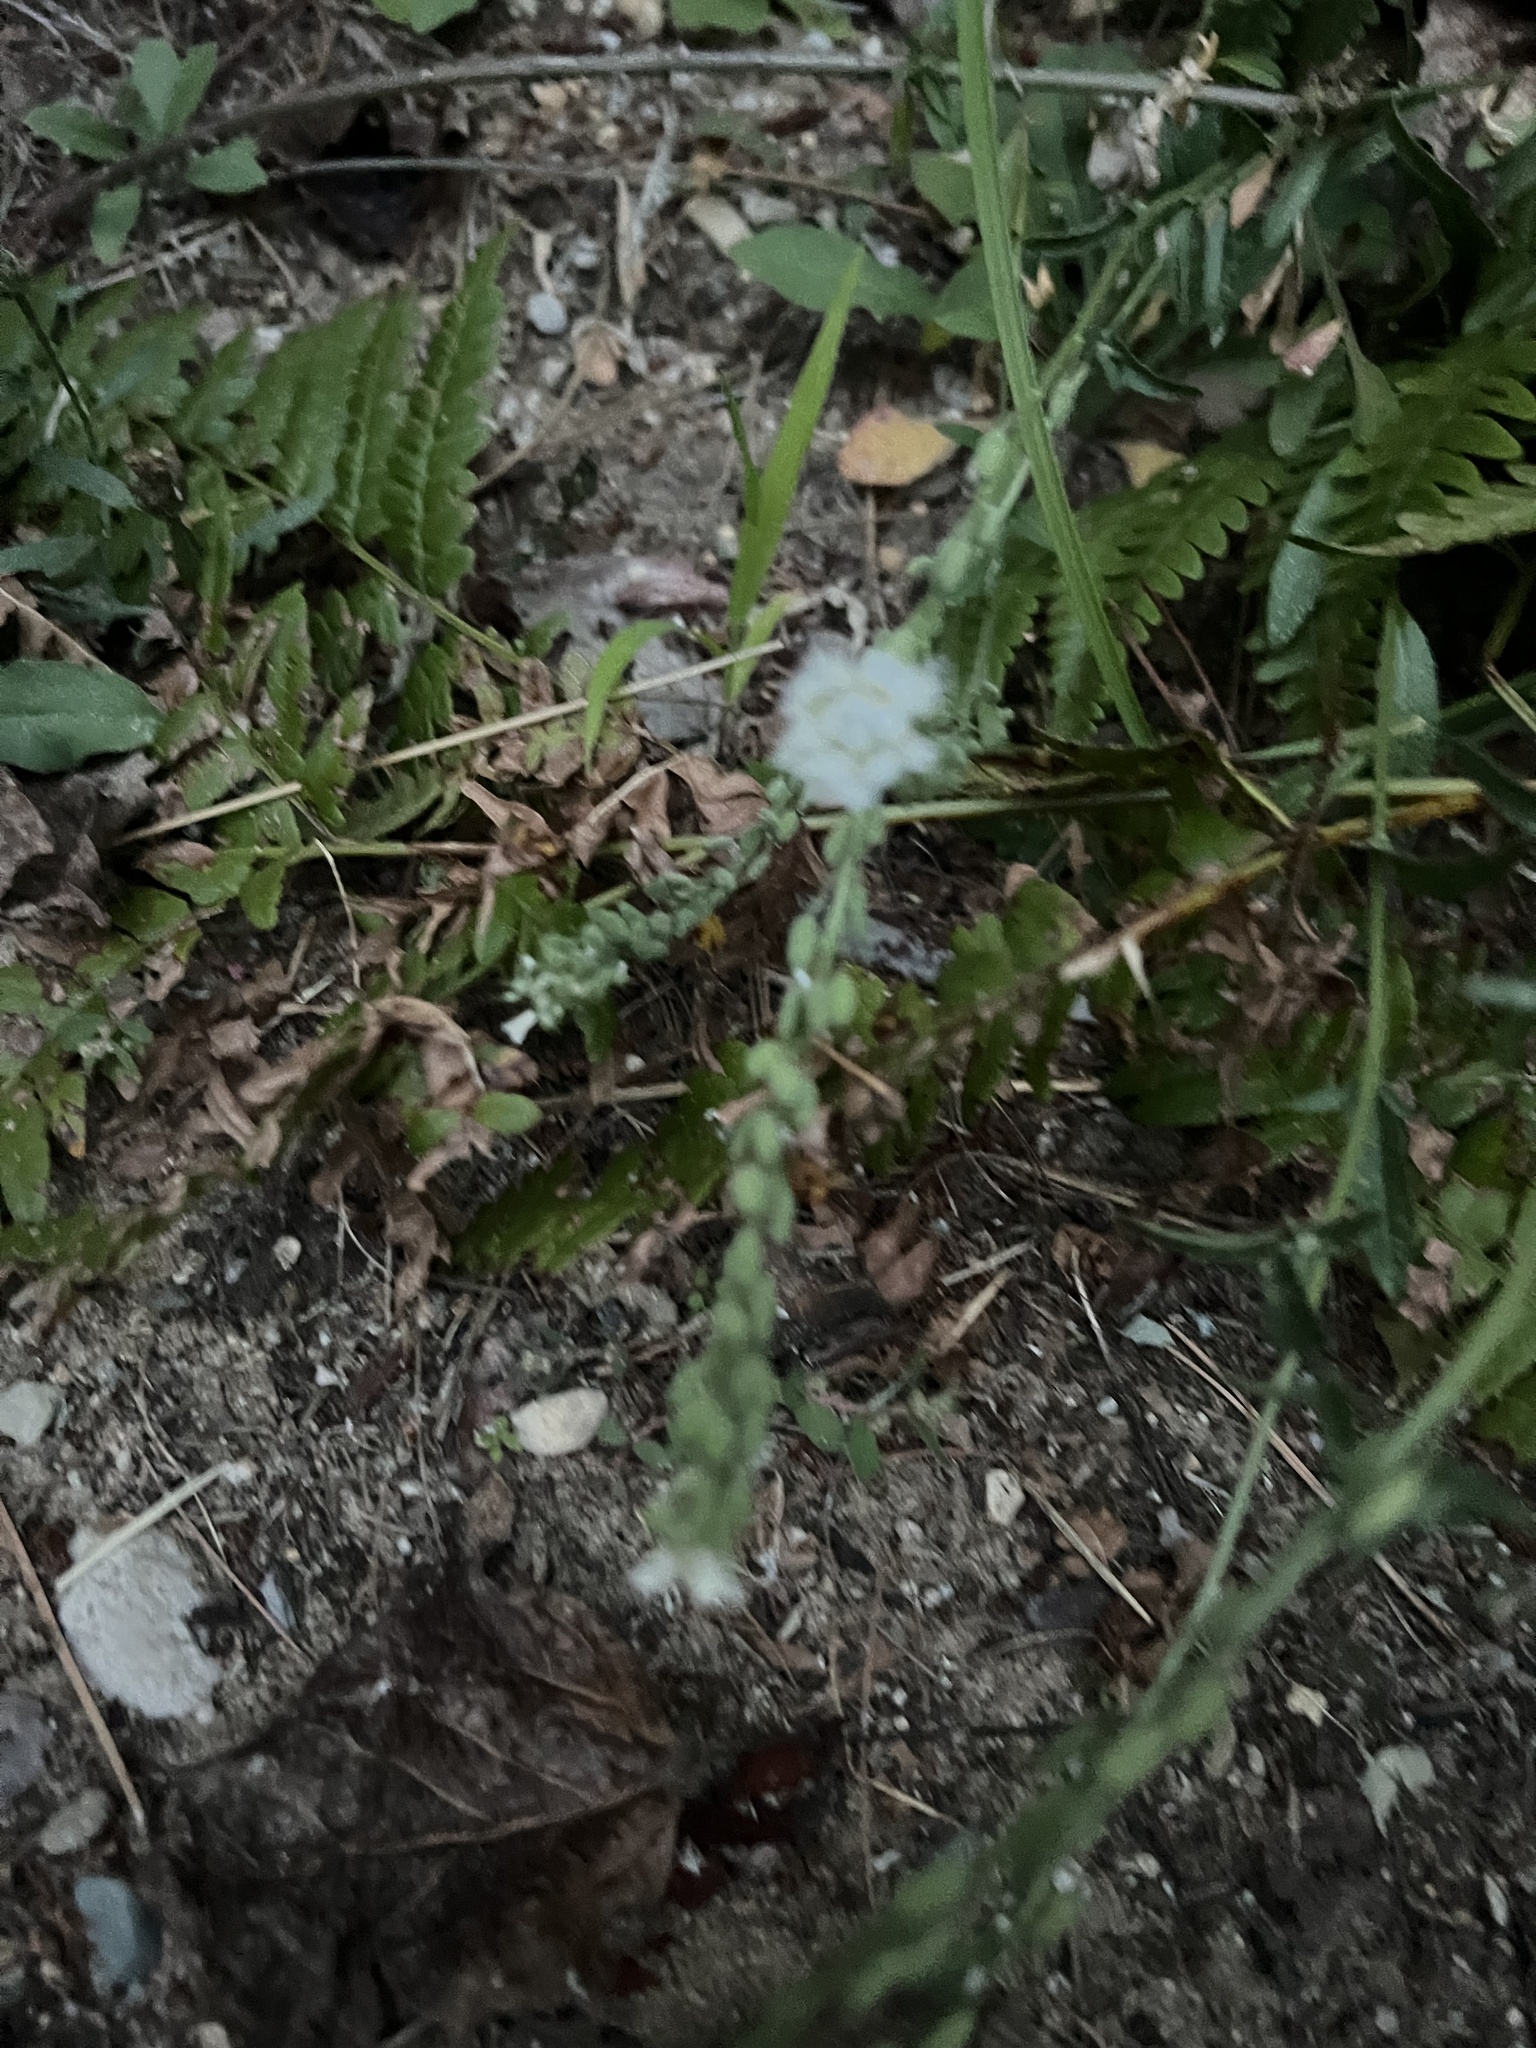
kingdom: Plantae
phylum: Tracheophyta
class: Magnoliopsida
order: Brassicales
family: Brassicaceae
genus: Berteroa
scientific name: Berteroa incana
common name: Hoary alison
